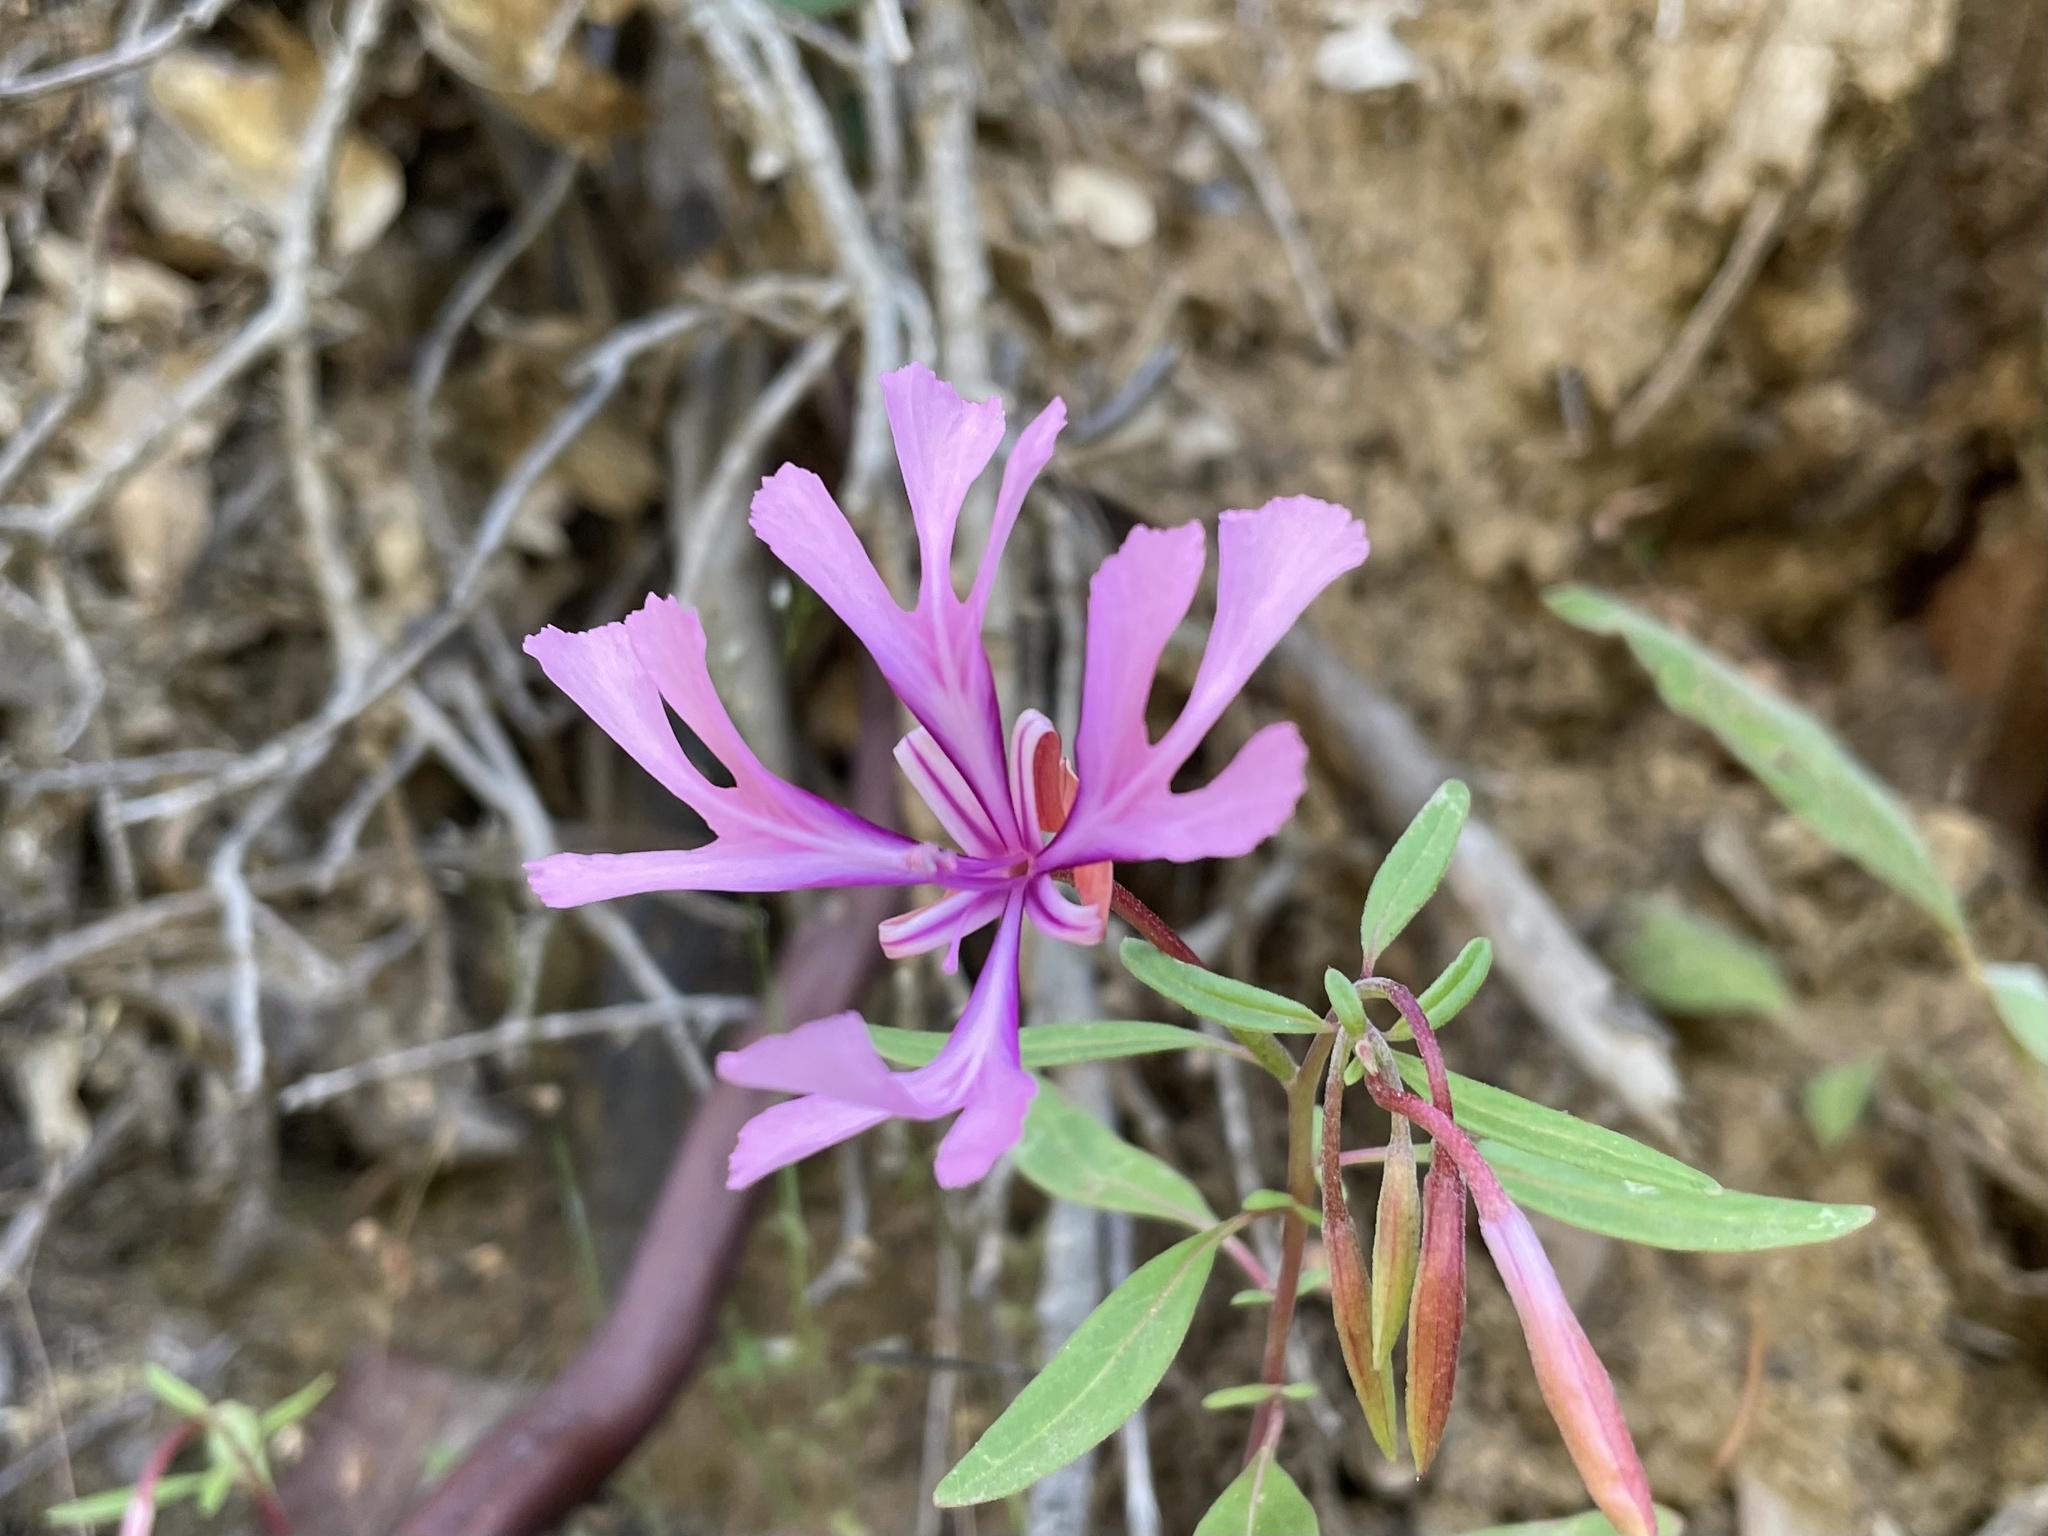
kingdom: Plantae
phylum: Tracheophyta
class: Magnoliopsida
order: Myrtales
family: Onagraceae
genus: Clarkia
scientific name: Clarkia concinna
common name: Red-ribbons
